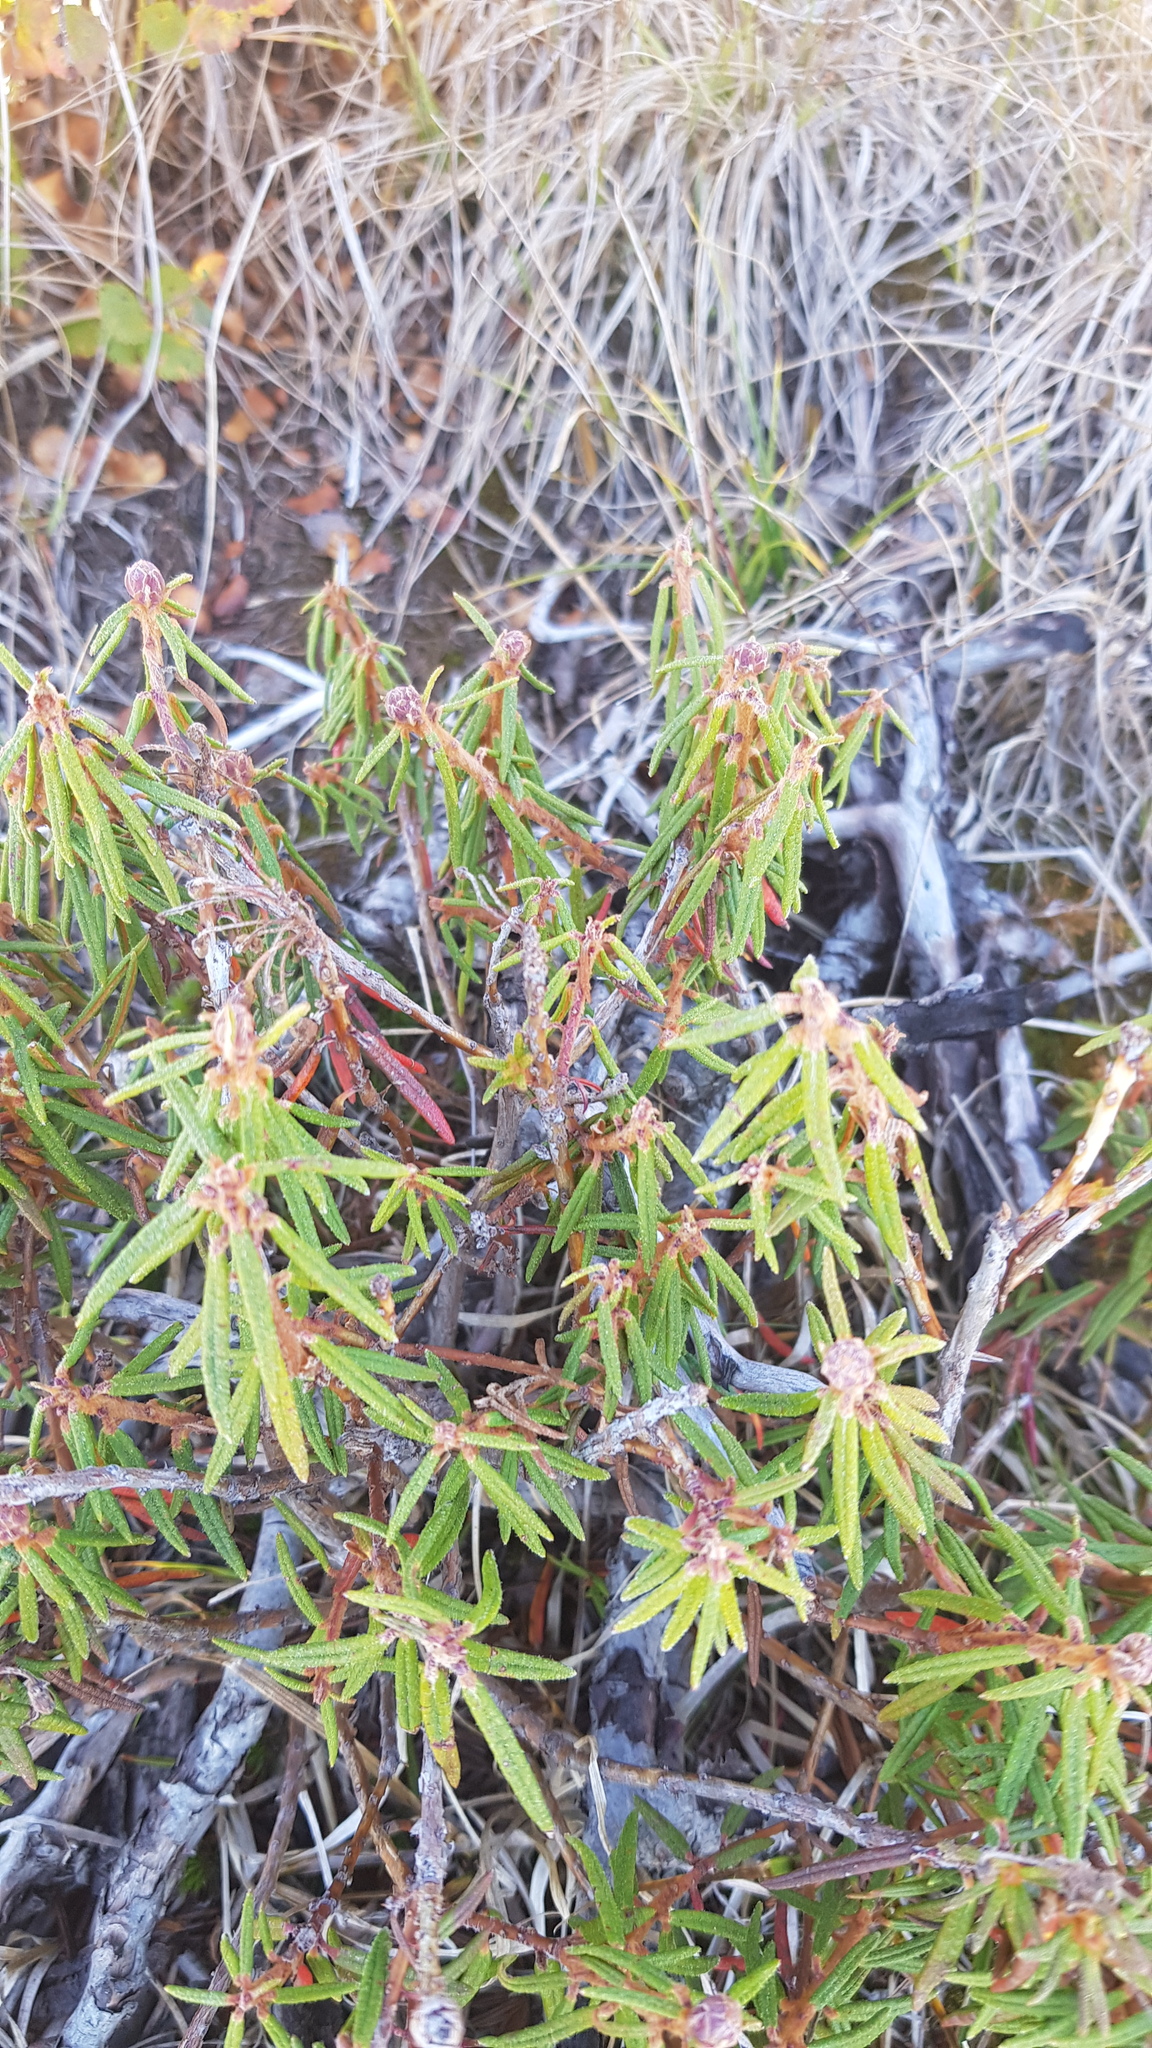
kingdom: Plantae
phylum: Tracheophyta
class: Magnoliopsida
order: Ericales
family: Ericaceae
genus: Rhododendron
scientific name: Rhododendron tomentosum
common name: Marsh labrador tea
